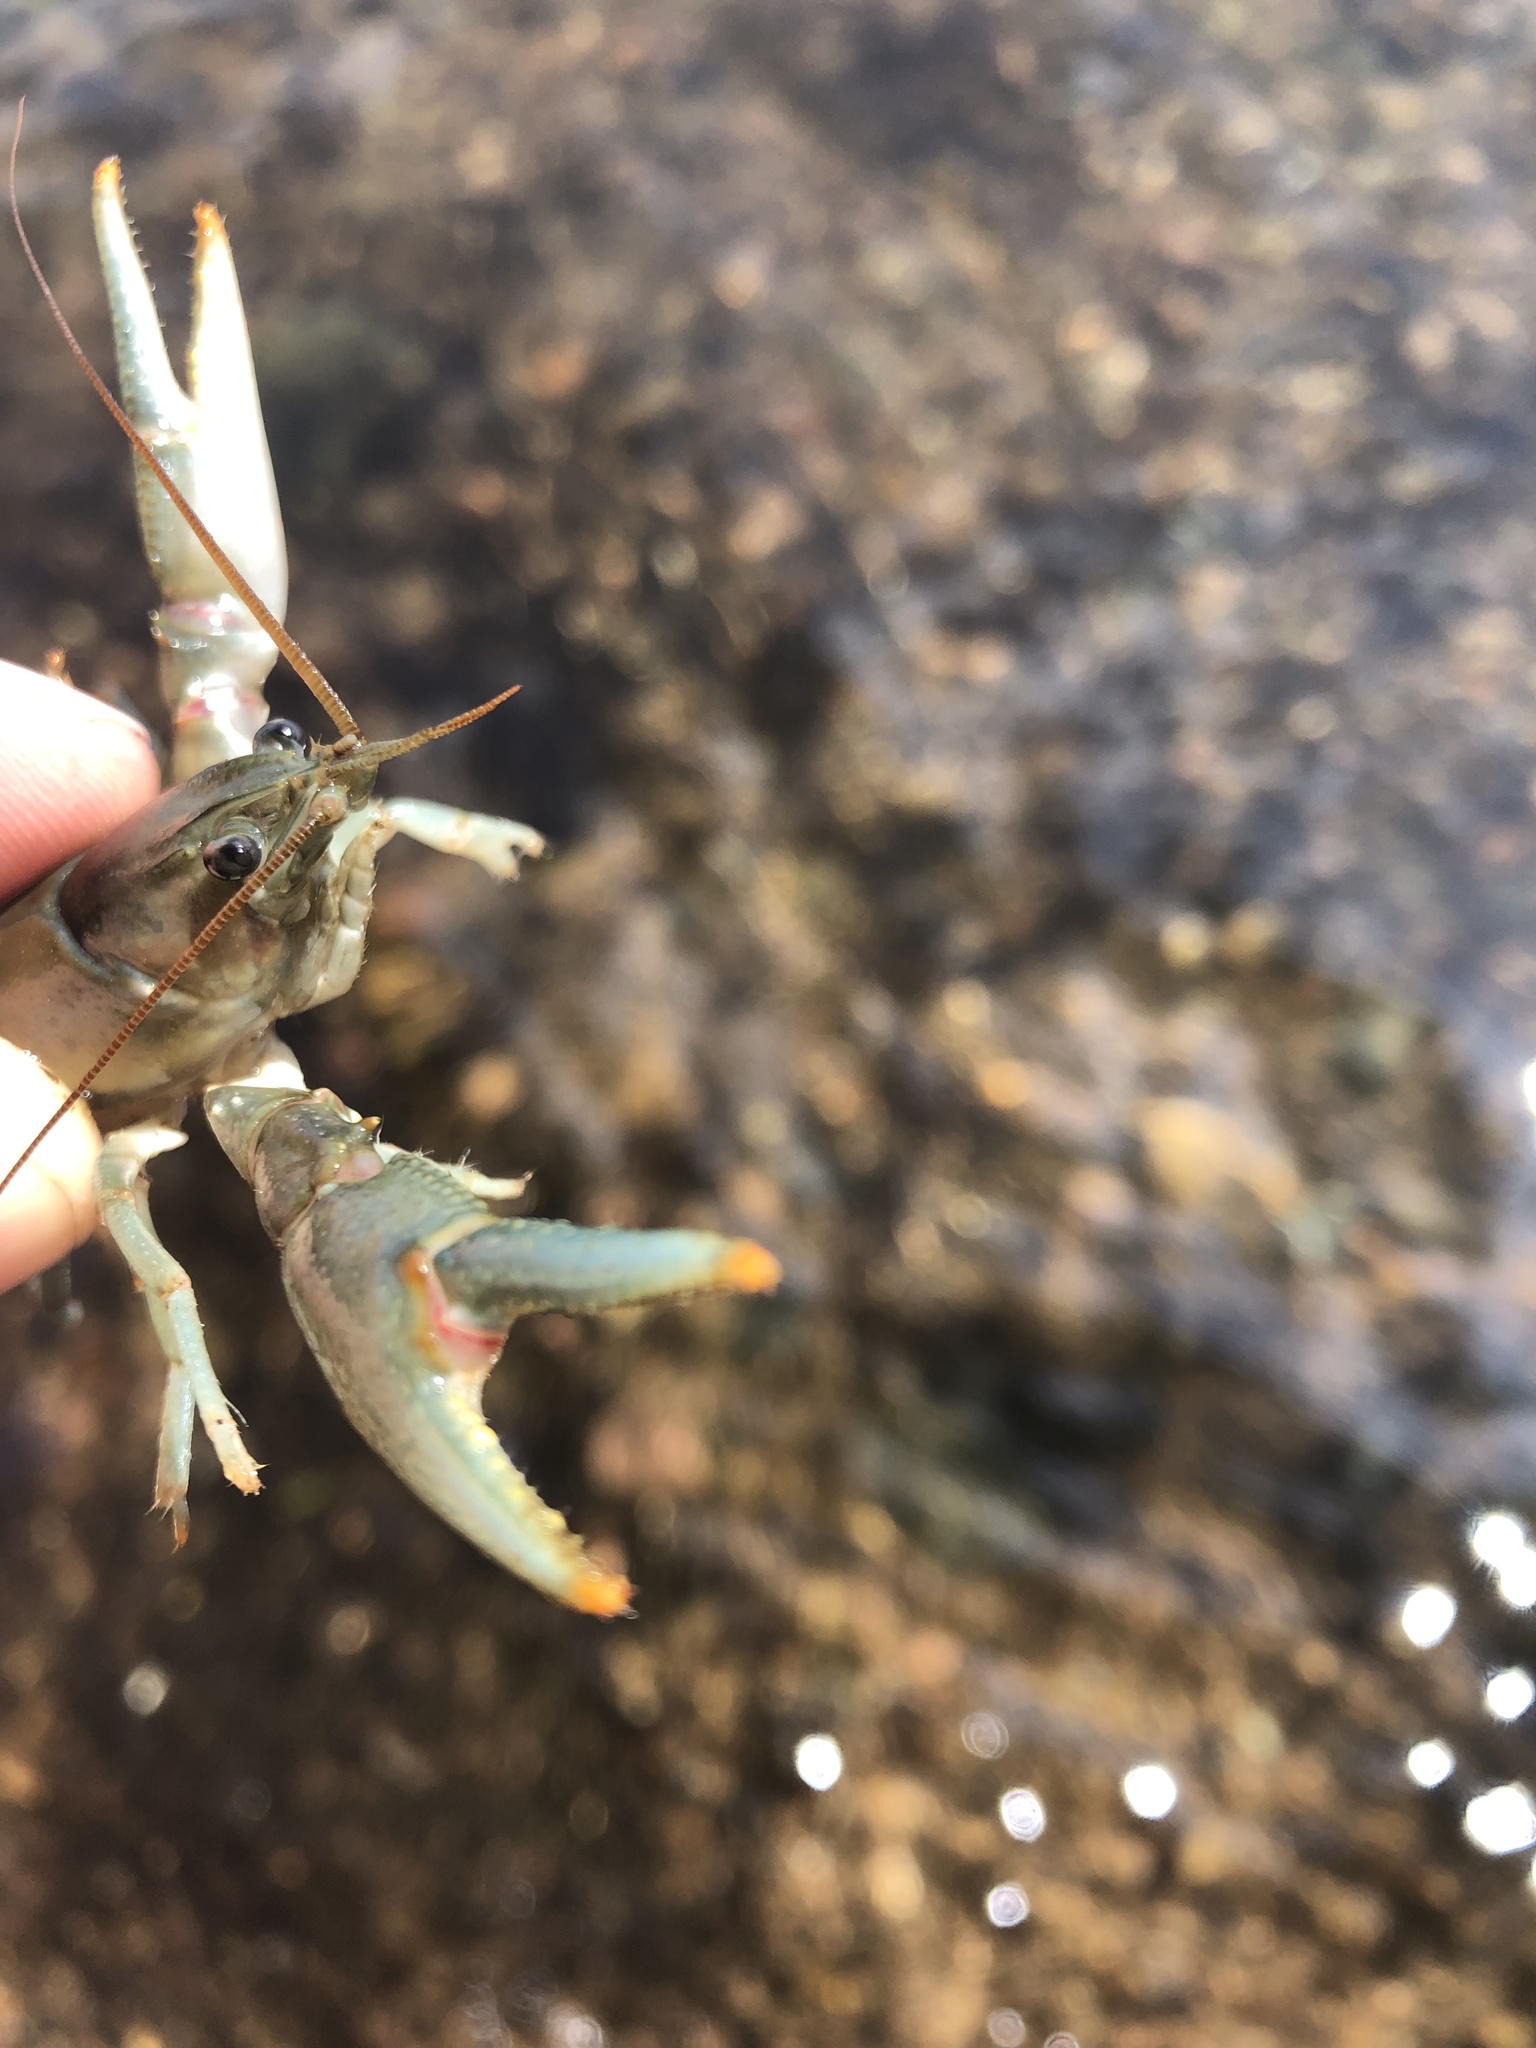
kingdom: Animalia
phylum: Arthropoda
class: Malacostraca
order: Decapoda
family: Cambaridae
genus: Faxonius
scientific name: Faxonius propinquus
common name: Northern clearwater crayfish
